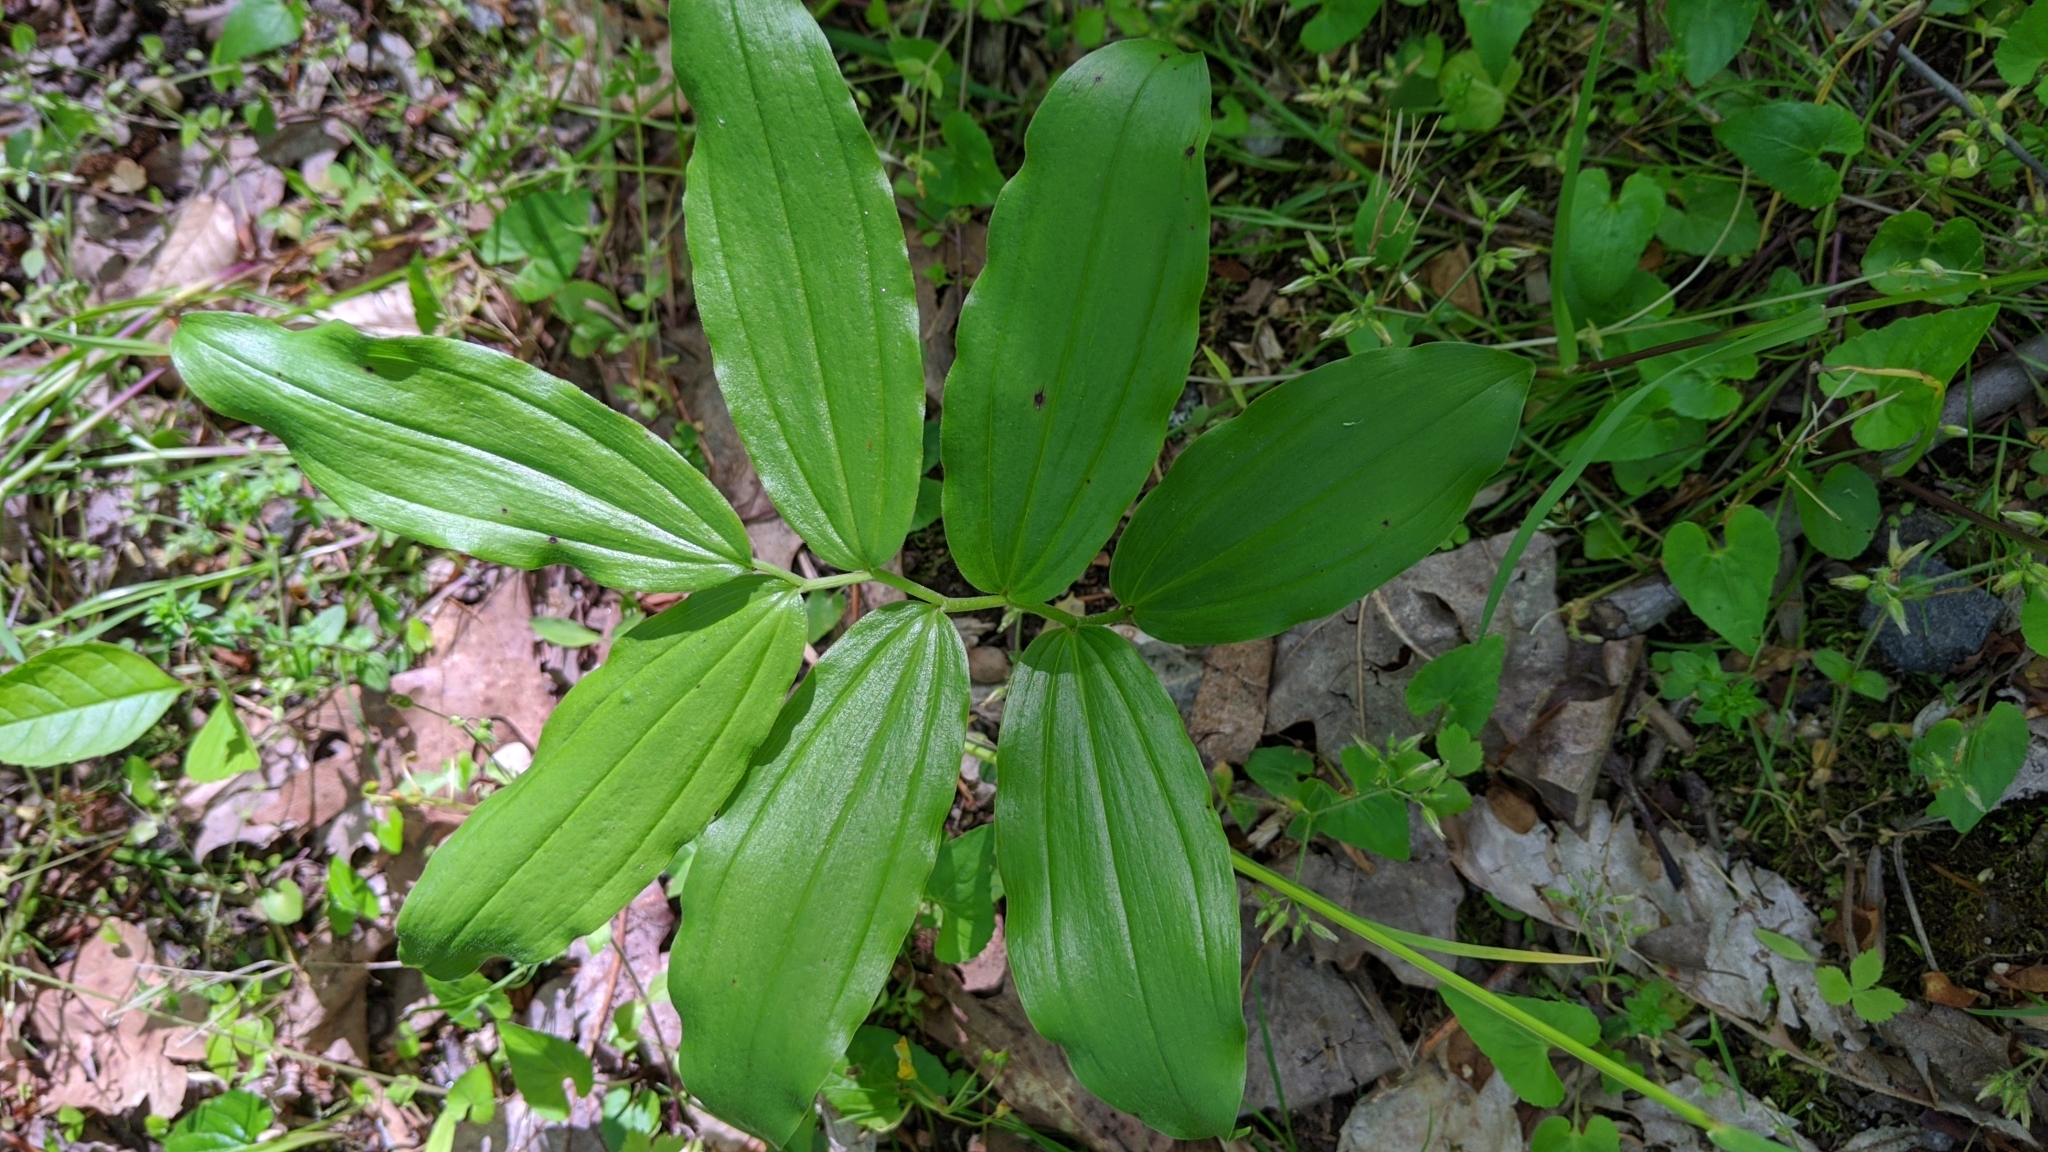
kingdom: Plantae
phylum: Tracheophyta
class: Liliopsida
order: Asparagales
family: Asparagaceae
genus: Maianthemum
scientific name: Maianthemum racemosum
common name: False spikenard
